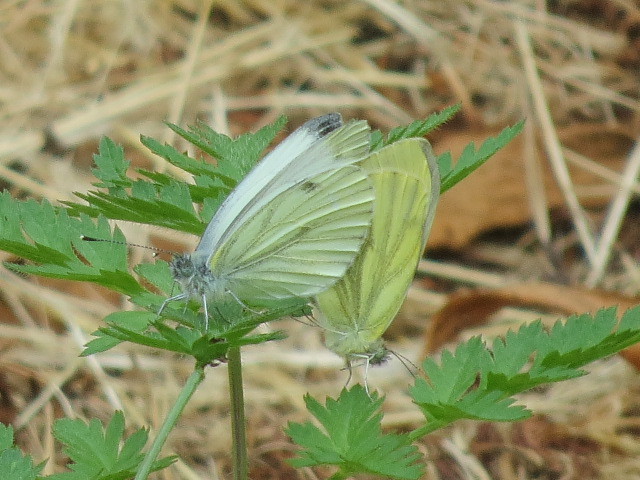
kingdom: Animalia
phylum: Arthropoda
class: Insecta
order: Lepidoptera
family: Pieridae
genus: Pieris
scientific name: Pieris napi
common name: Green-veined white
